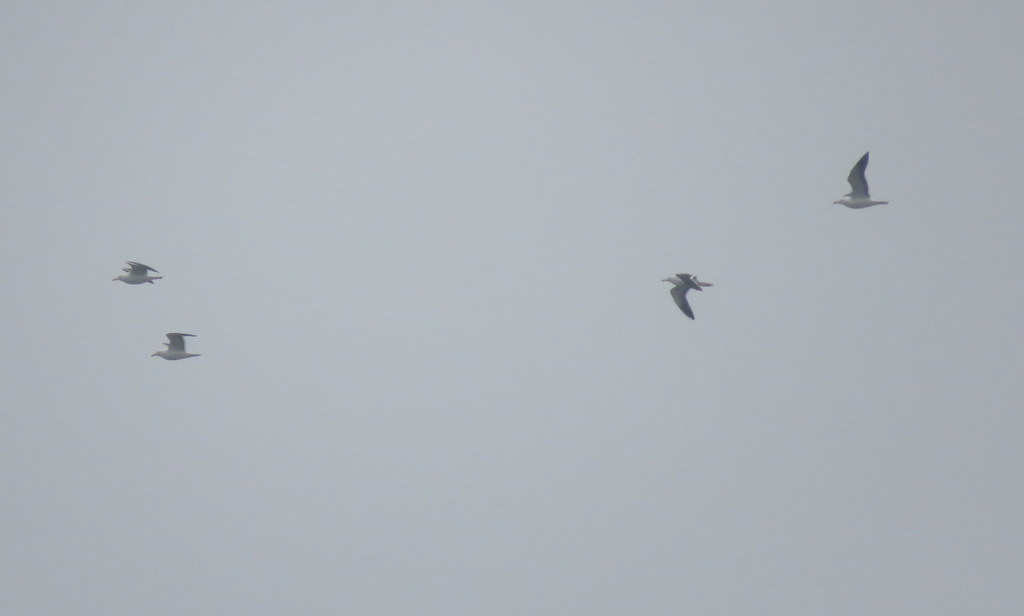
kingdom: Animalia
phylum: Chordata
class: Aves
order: Charadriiformes
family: Laridae
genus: Larus
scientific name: Larus dominicanus
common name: Kelp gull
